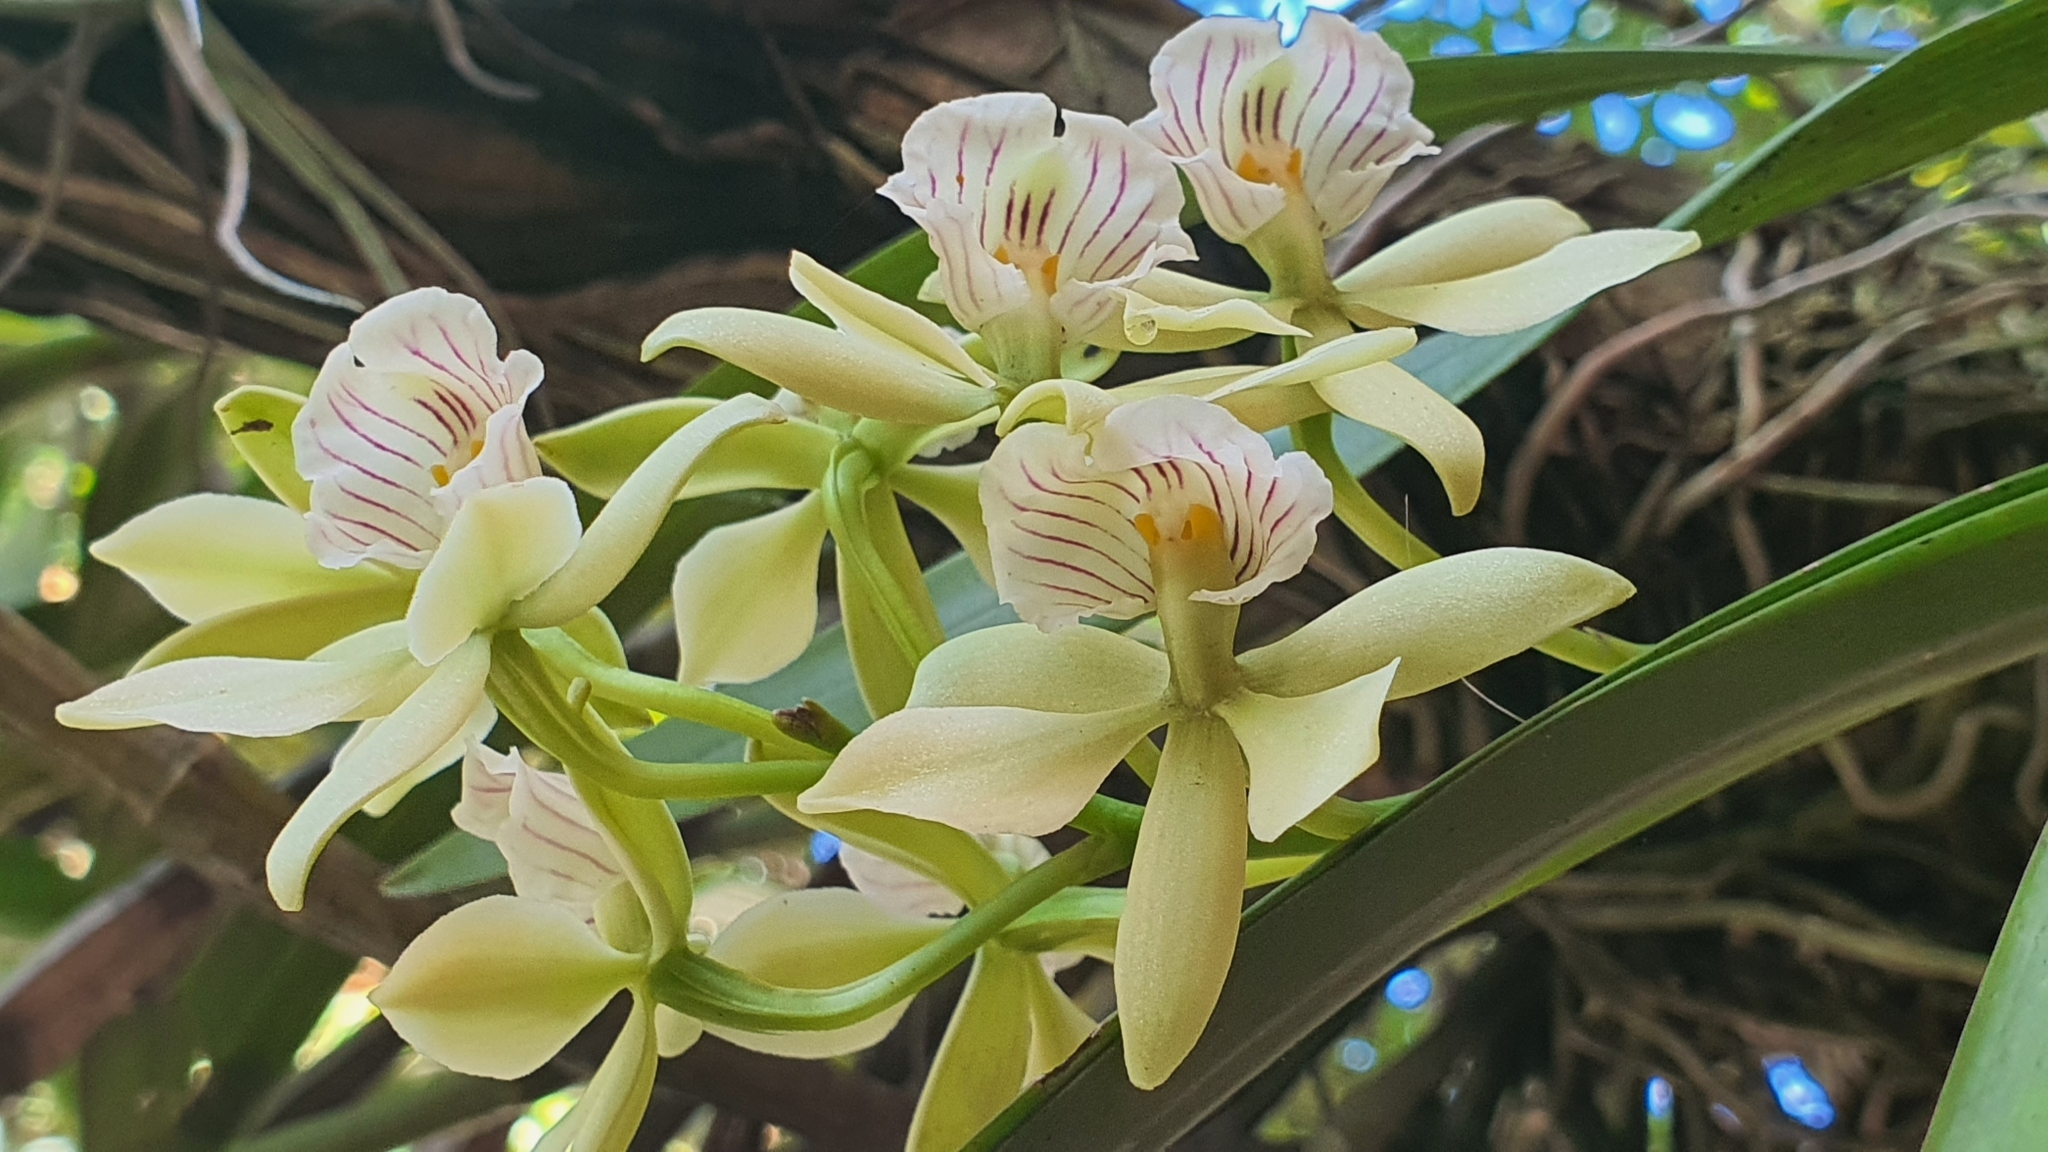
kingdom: Plantae
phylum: Tracheophyta
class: Liliopsida
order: Asparagales
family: Orchidaceae
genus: Prosthechea
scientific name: Prosthechea radiata
